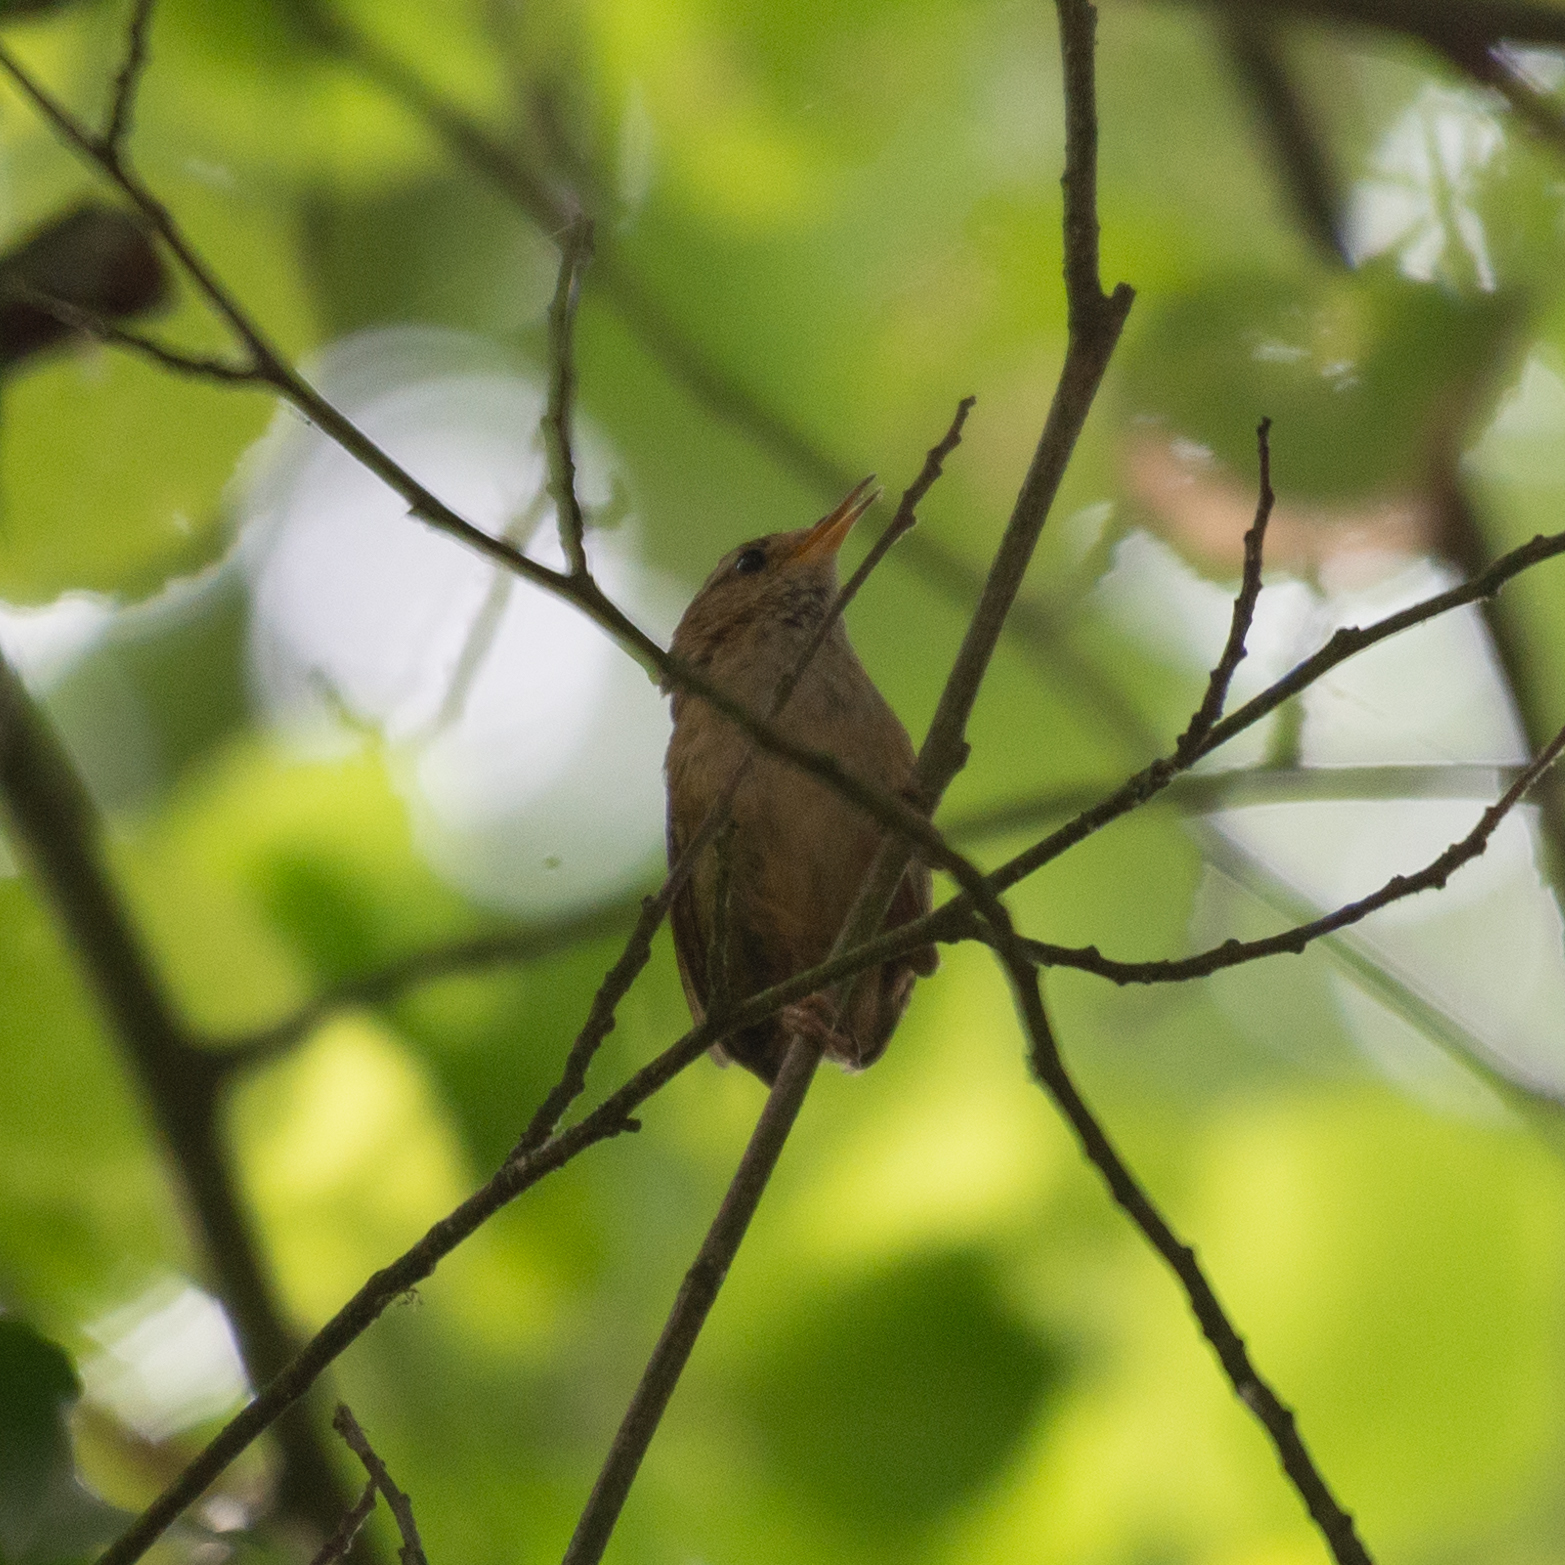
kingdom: Animalia
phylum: Chordata
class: Aves
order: Passeriformes
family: Troglodytidae
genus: Troglodytes
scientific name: Troglodytes troglodytes
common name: Eurasian wren
